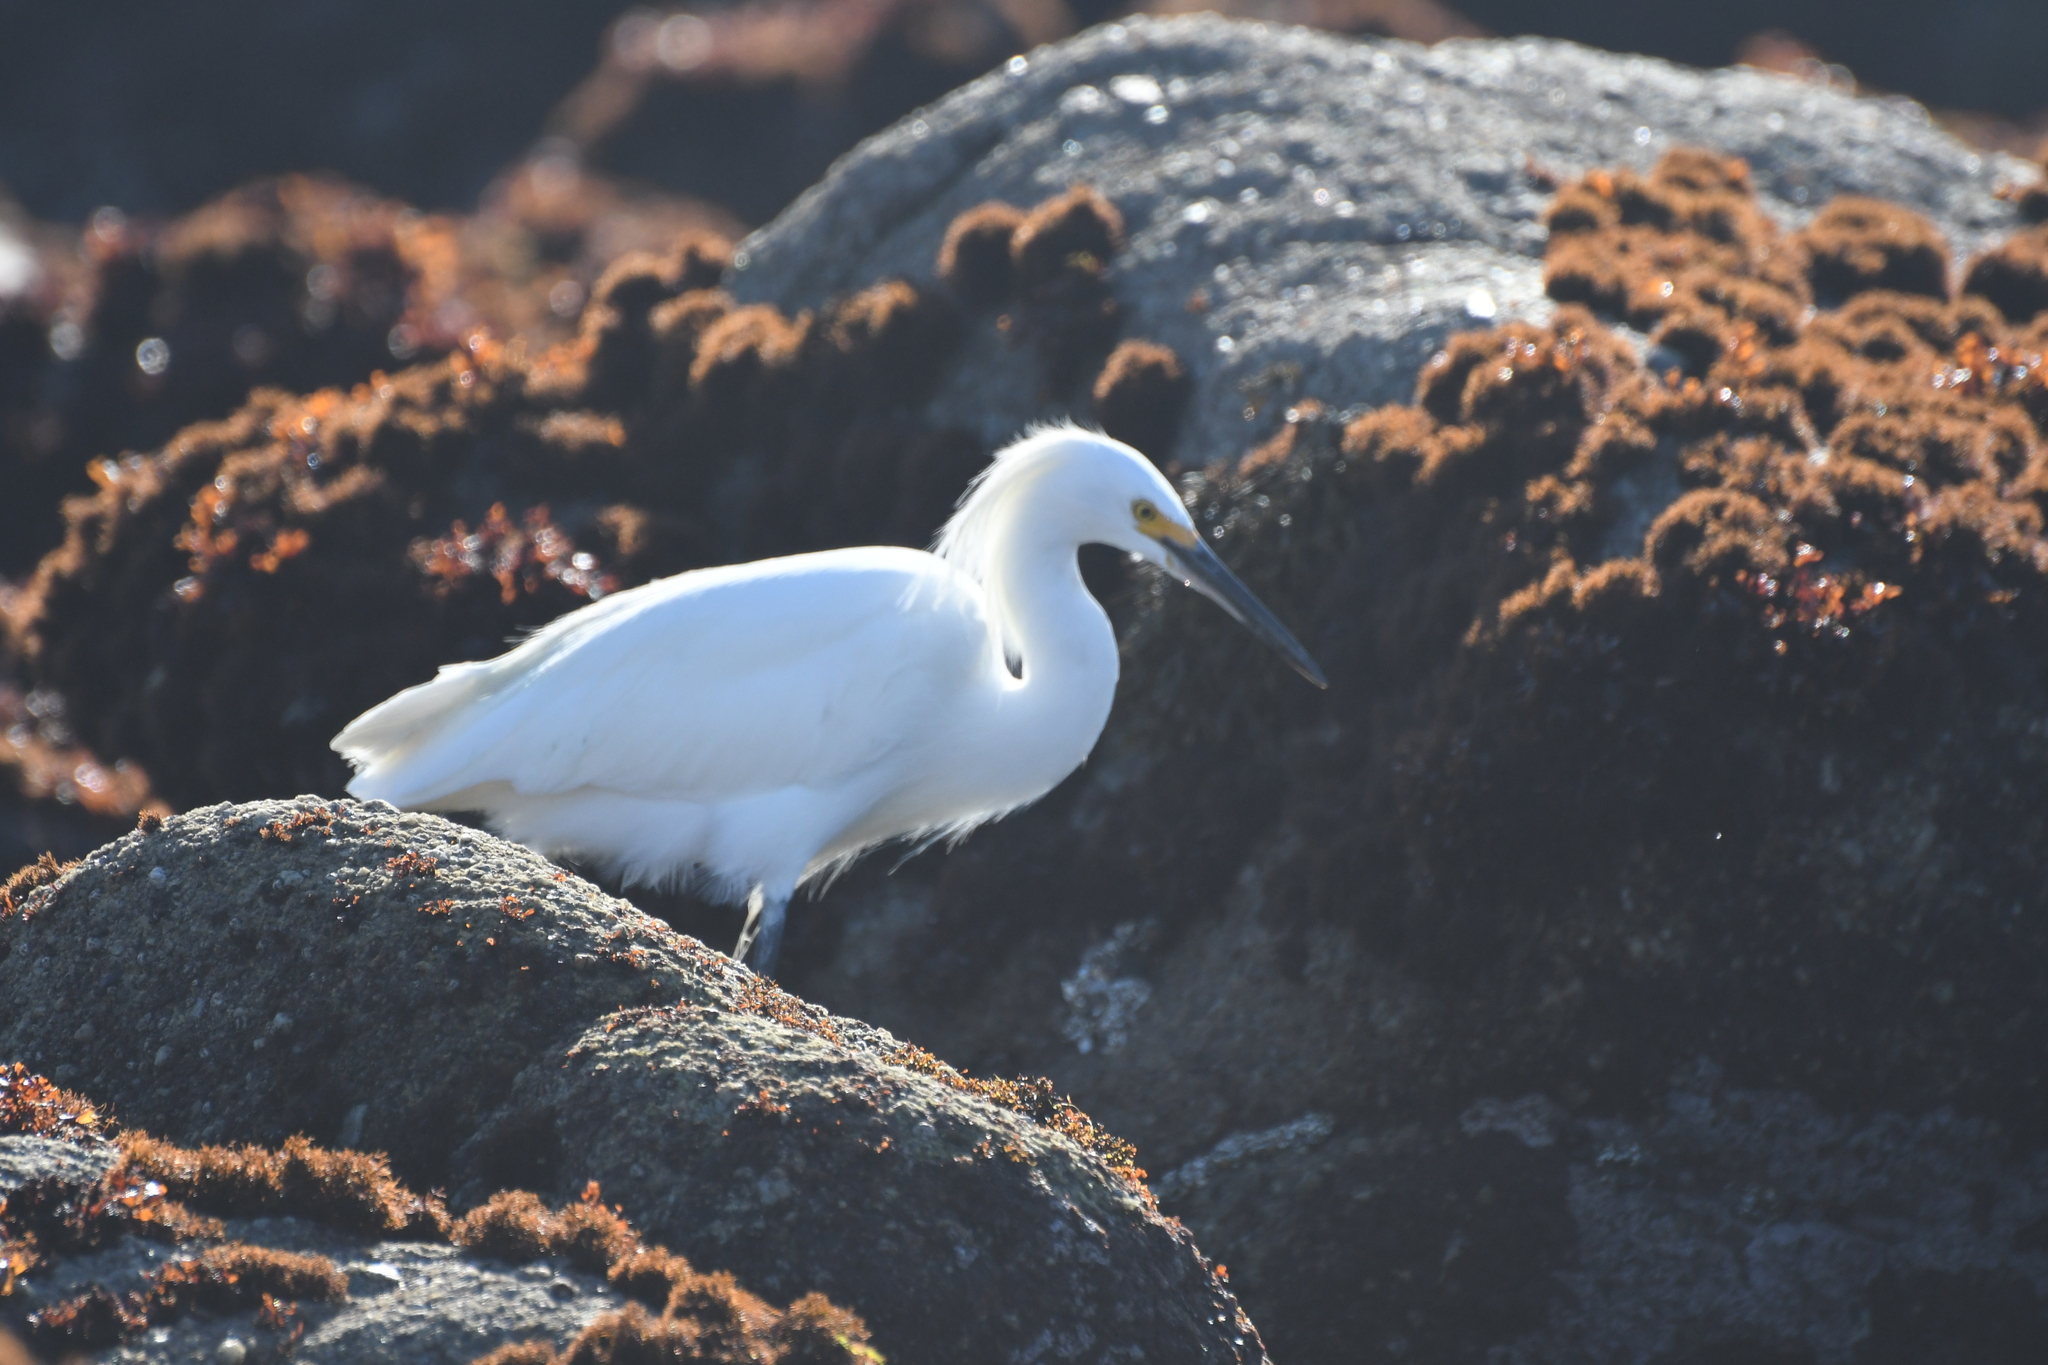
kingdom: Animalia
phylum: Chordata
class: Aves
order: Pelecaniformes
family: Ardeidae
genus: Egretta
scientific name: Egretta thula
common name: Snowy egret
